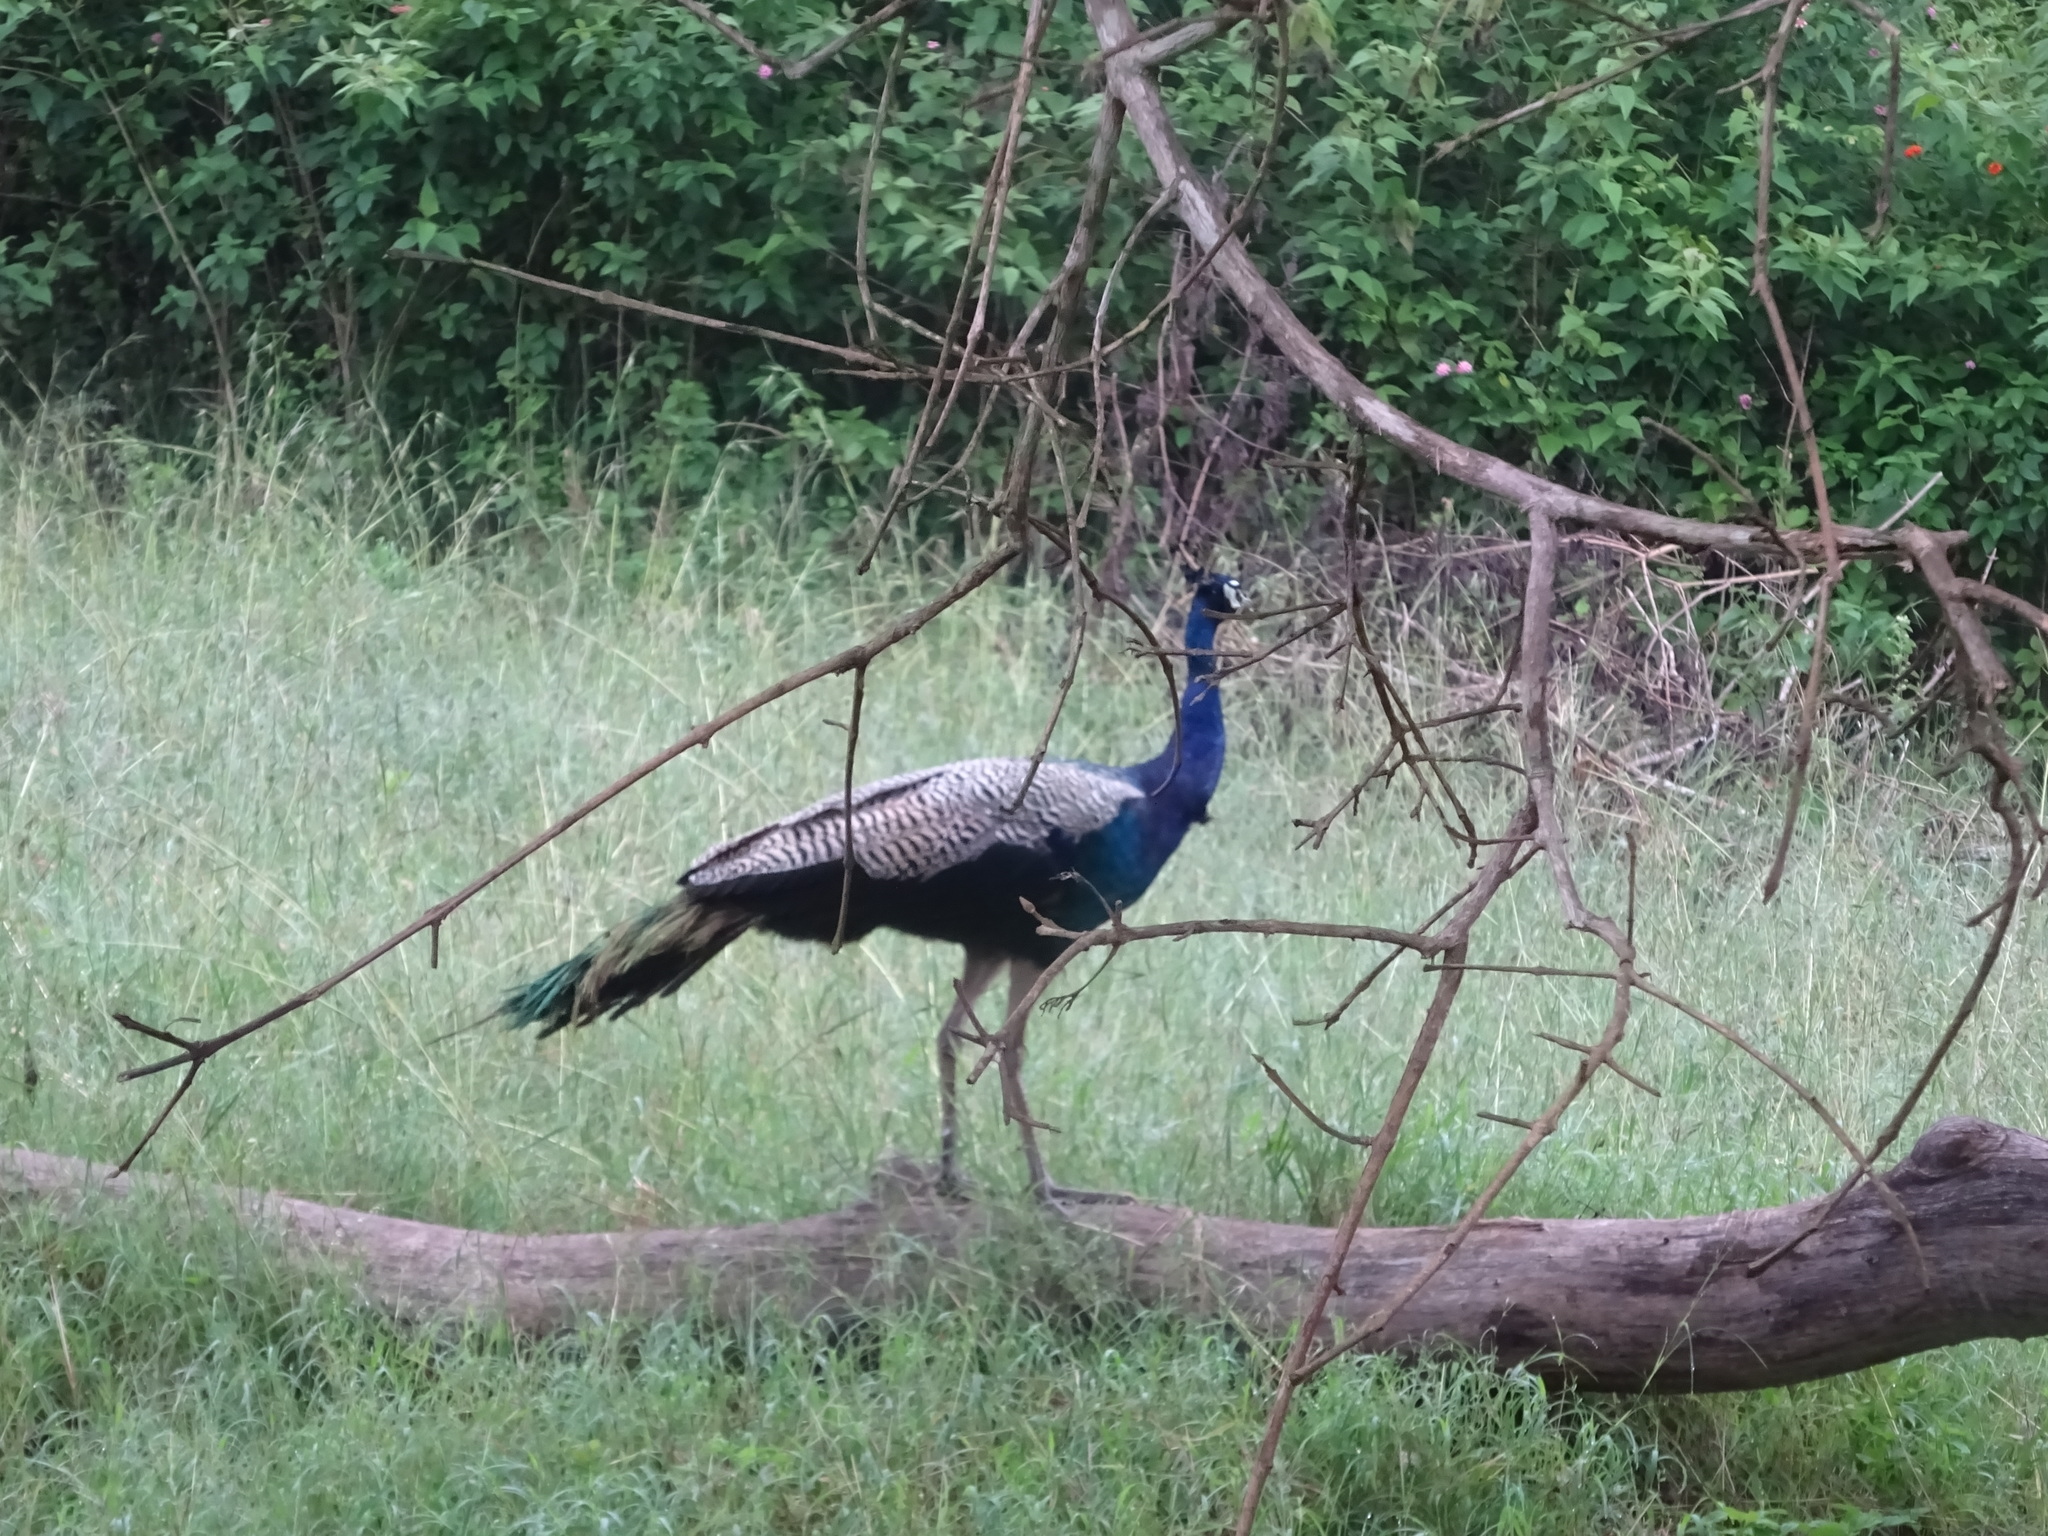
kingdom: Animalia
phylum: Chordata
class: Aves
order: Galliformes
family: Phasianidae
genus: Pavo
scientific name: Pavo cristatus
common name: Indian peafowl
